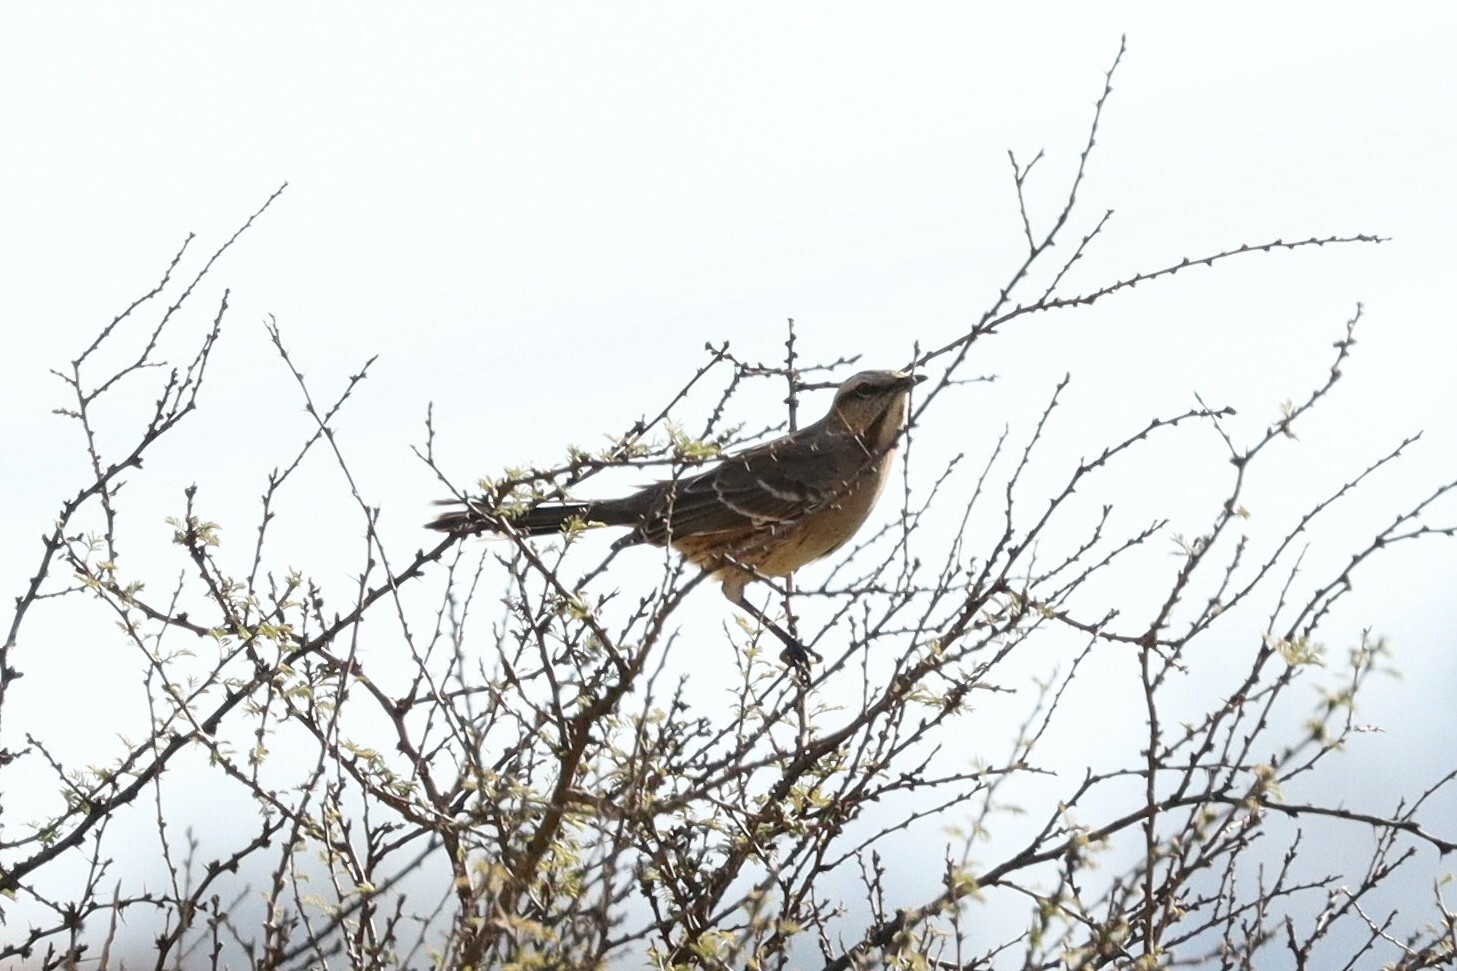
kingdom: Animalia
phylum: Chordata
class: Aves
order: Passeriformes
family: Mimidae
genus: Mimus
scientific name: Mimus thenca
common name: Chilean mockingbird
